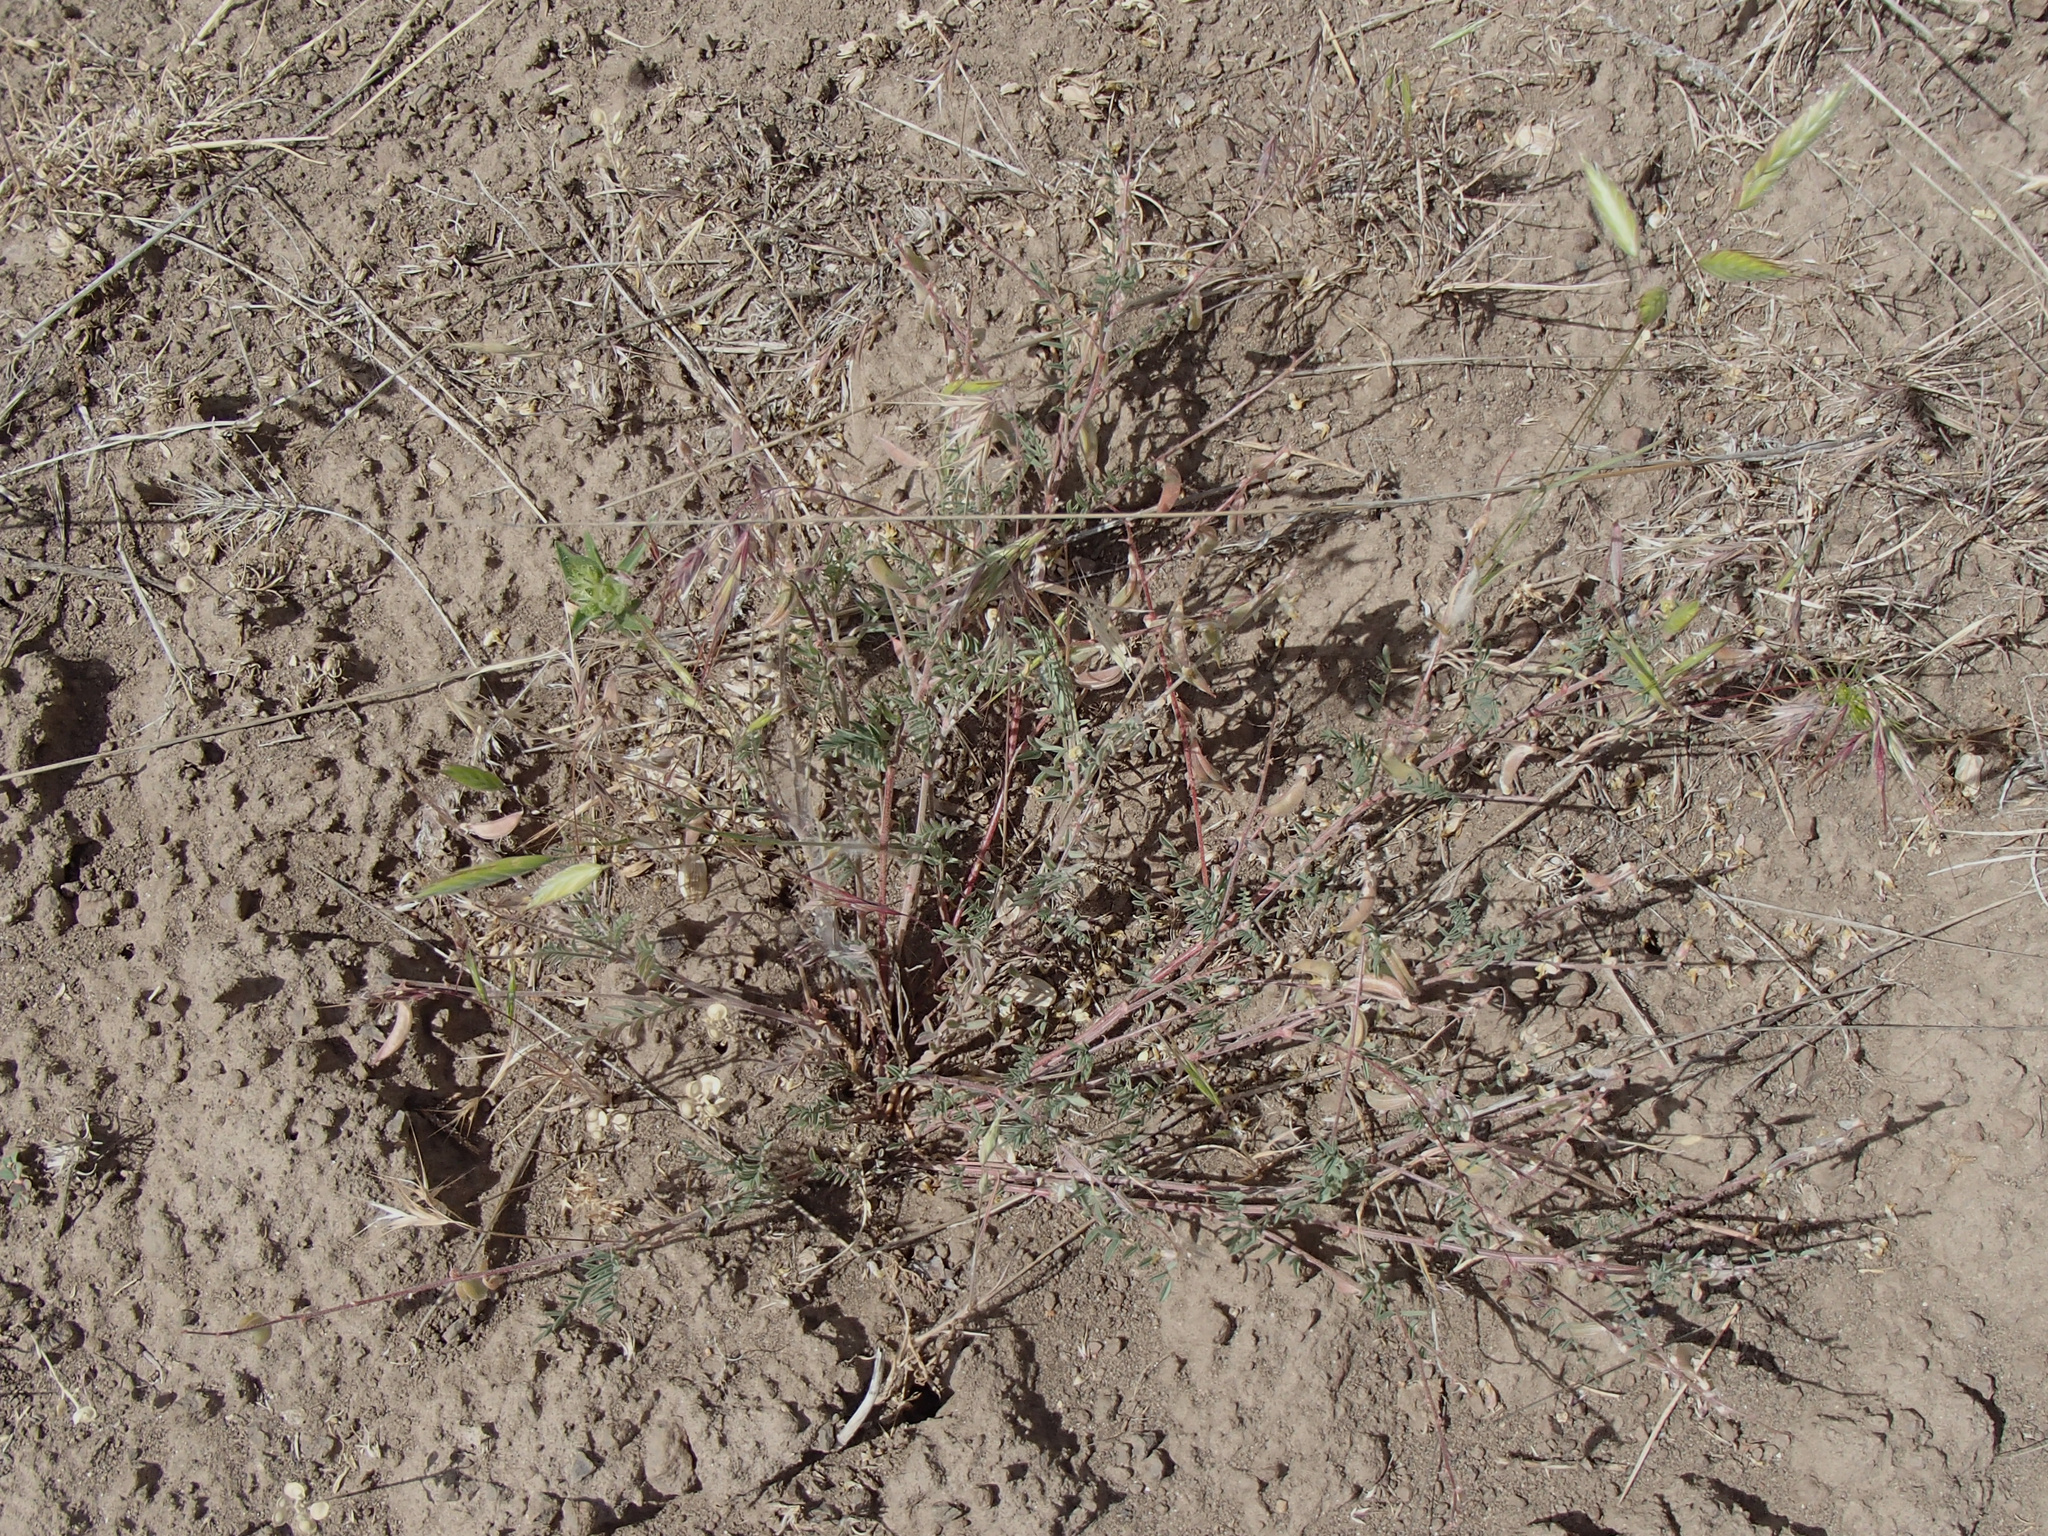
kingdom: Plantae
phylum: Tracheophyta
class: Magnoliopsida
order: Fabales
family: Fabaceae
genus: Astragalus
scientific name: Astragalus misellus
